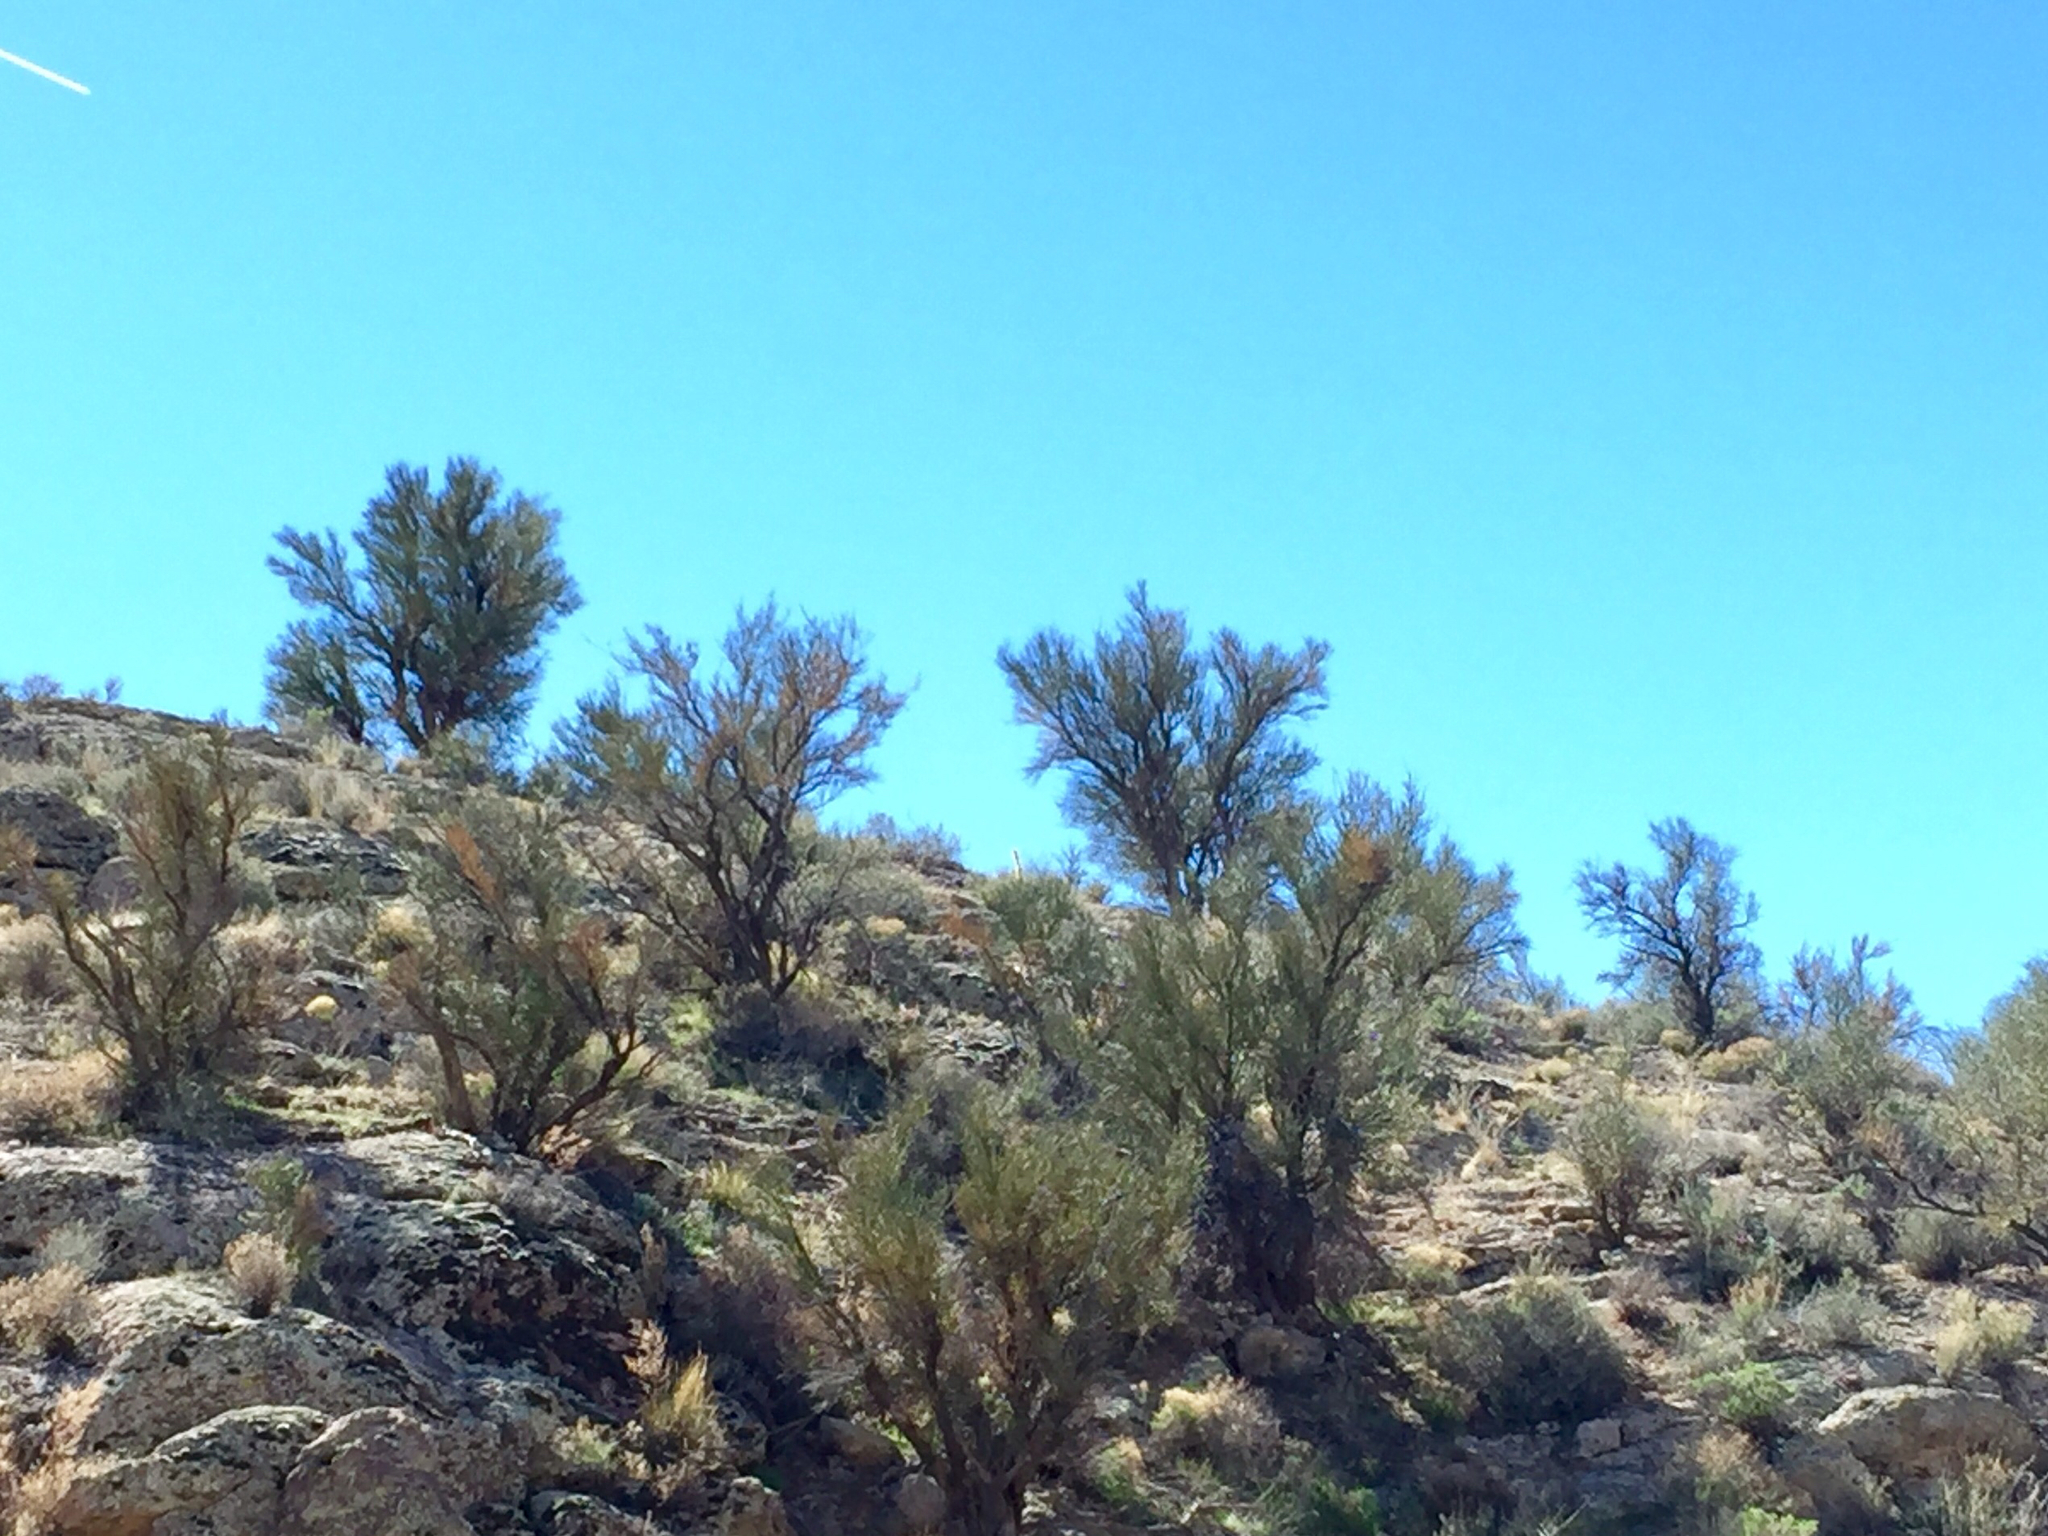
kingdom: Plantae
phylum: Tracheophyta
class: Magnoliopsida
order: Celastrales
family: Celastraceae
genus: Canotia
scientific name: Canotia holacantha
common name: Crucifixion thorns
